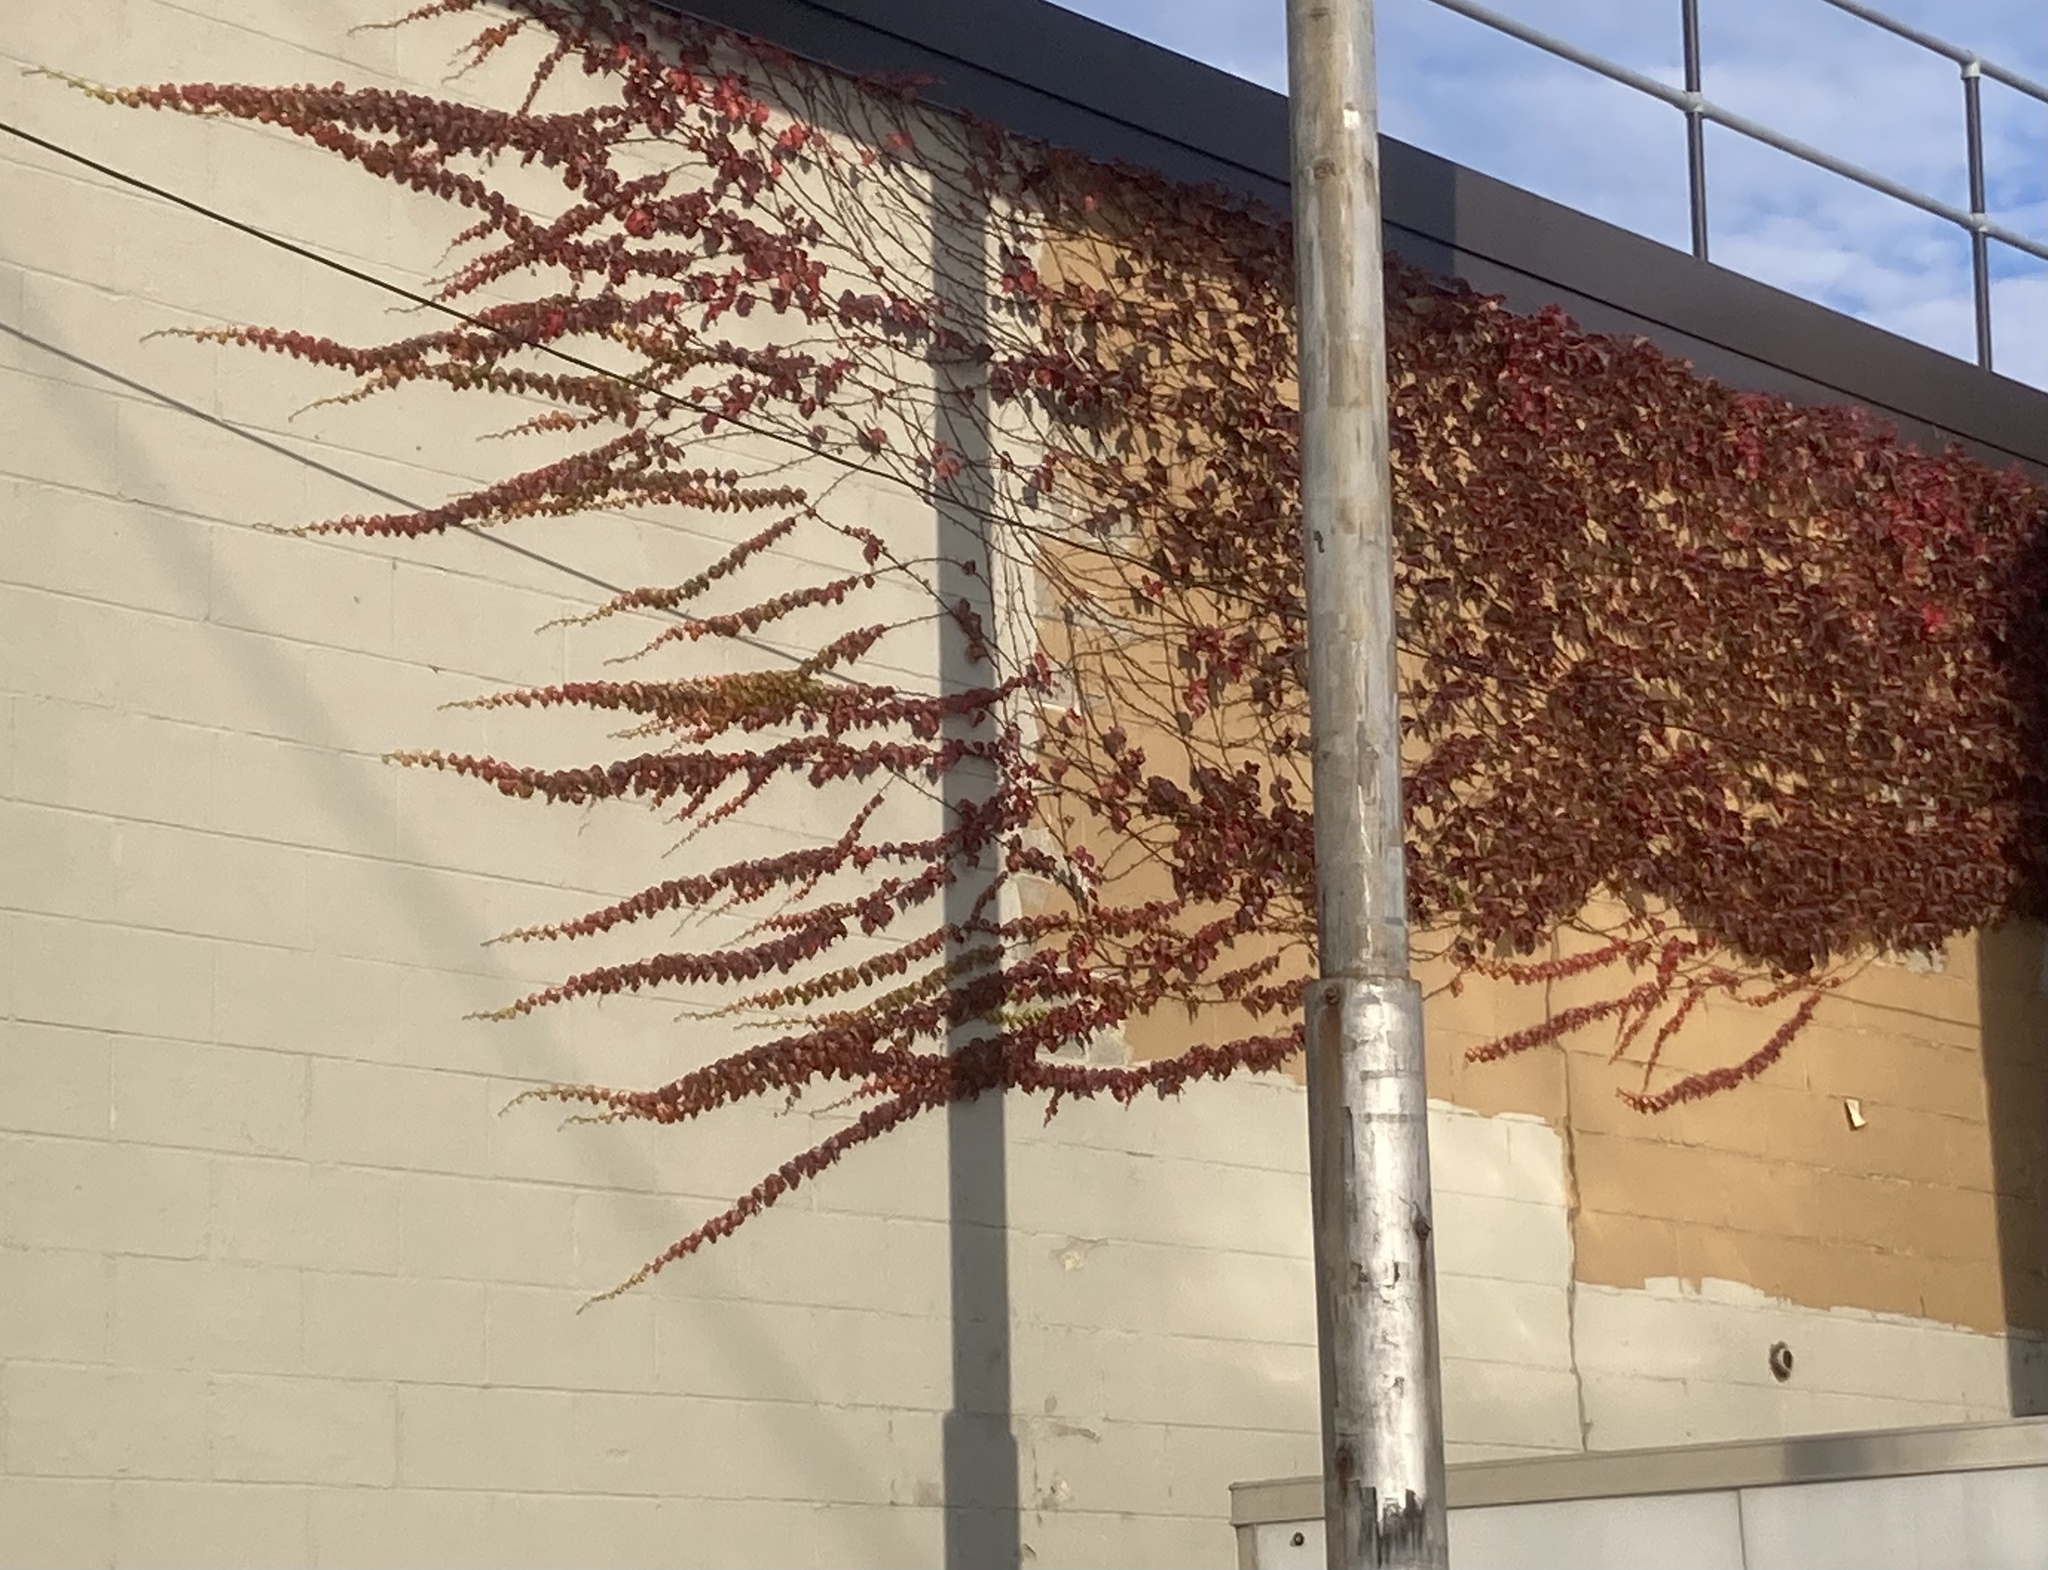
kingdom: Plantae
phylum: Tracheophyta
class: Magnoliopsida
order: Vitales
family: Vitaceae
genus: Parthenocissus
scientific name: Parthenocissus tricuspidata
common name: Boston ivy
